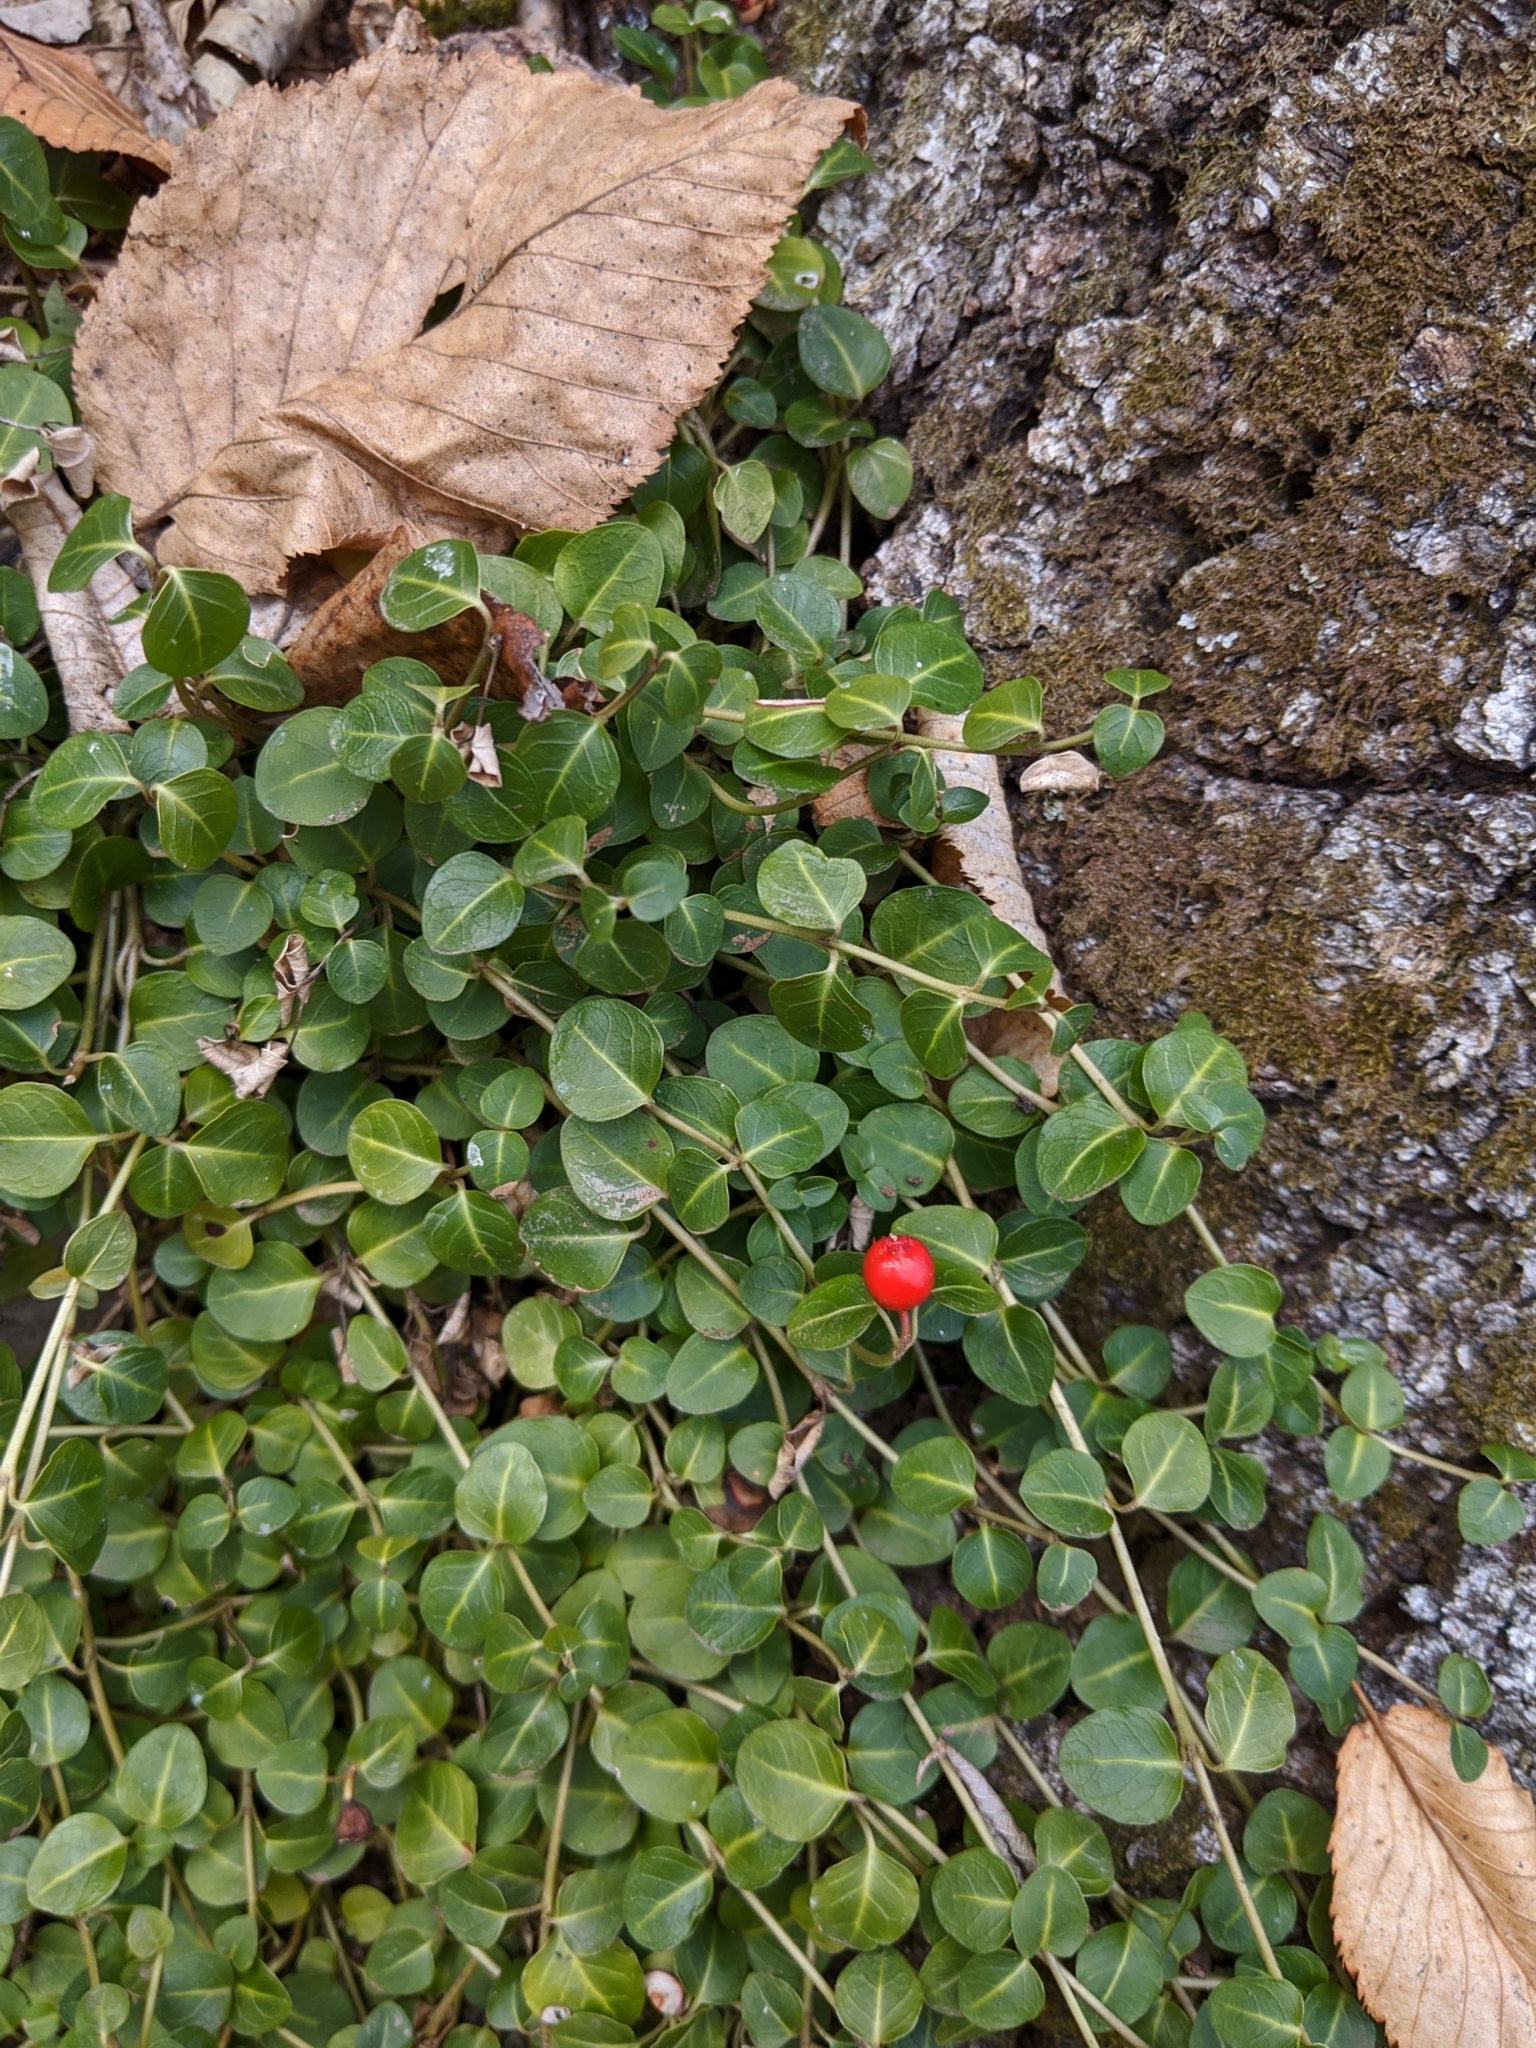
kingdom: Plantae
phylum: Tracheophyta
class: Magnoliopsida
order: Gentianales
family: Rubiaceae
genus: Mitchella
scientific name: Mitchella repens
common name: Partridge-berry
